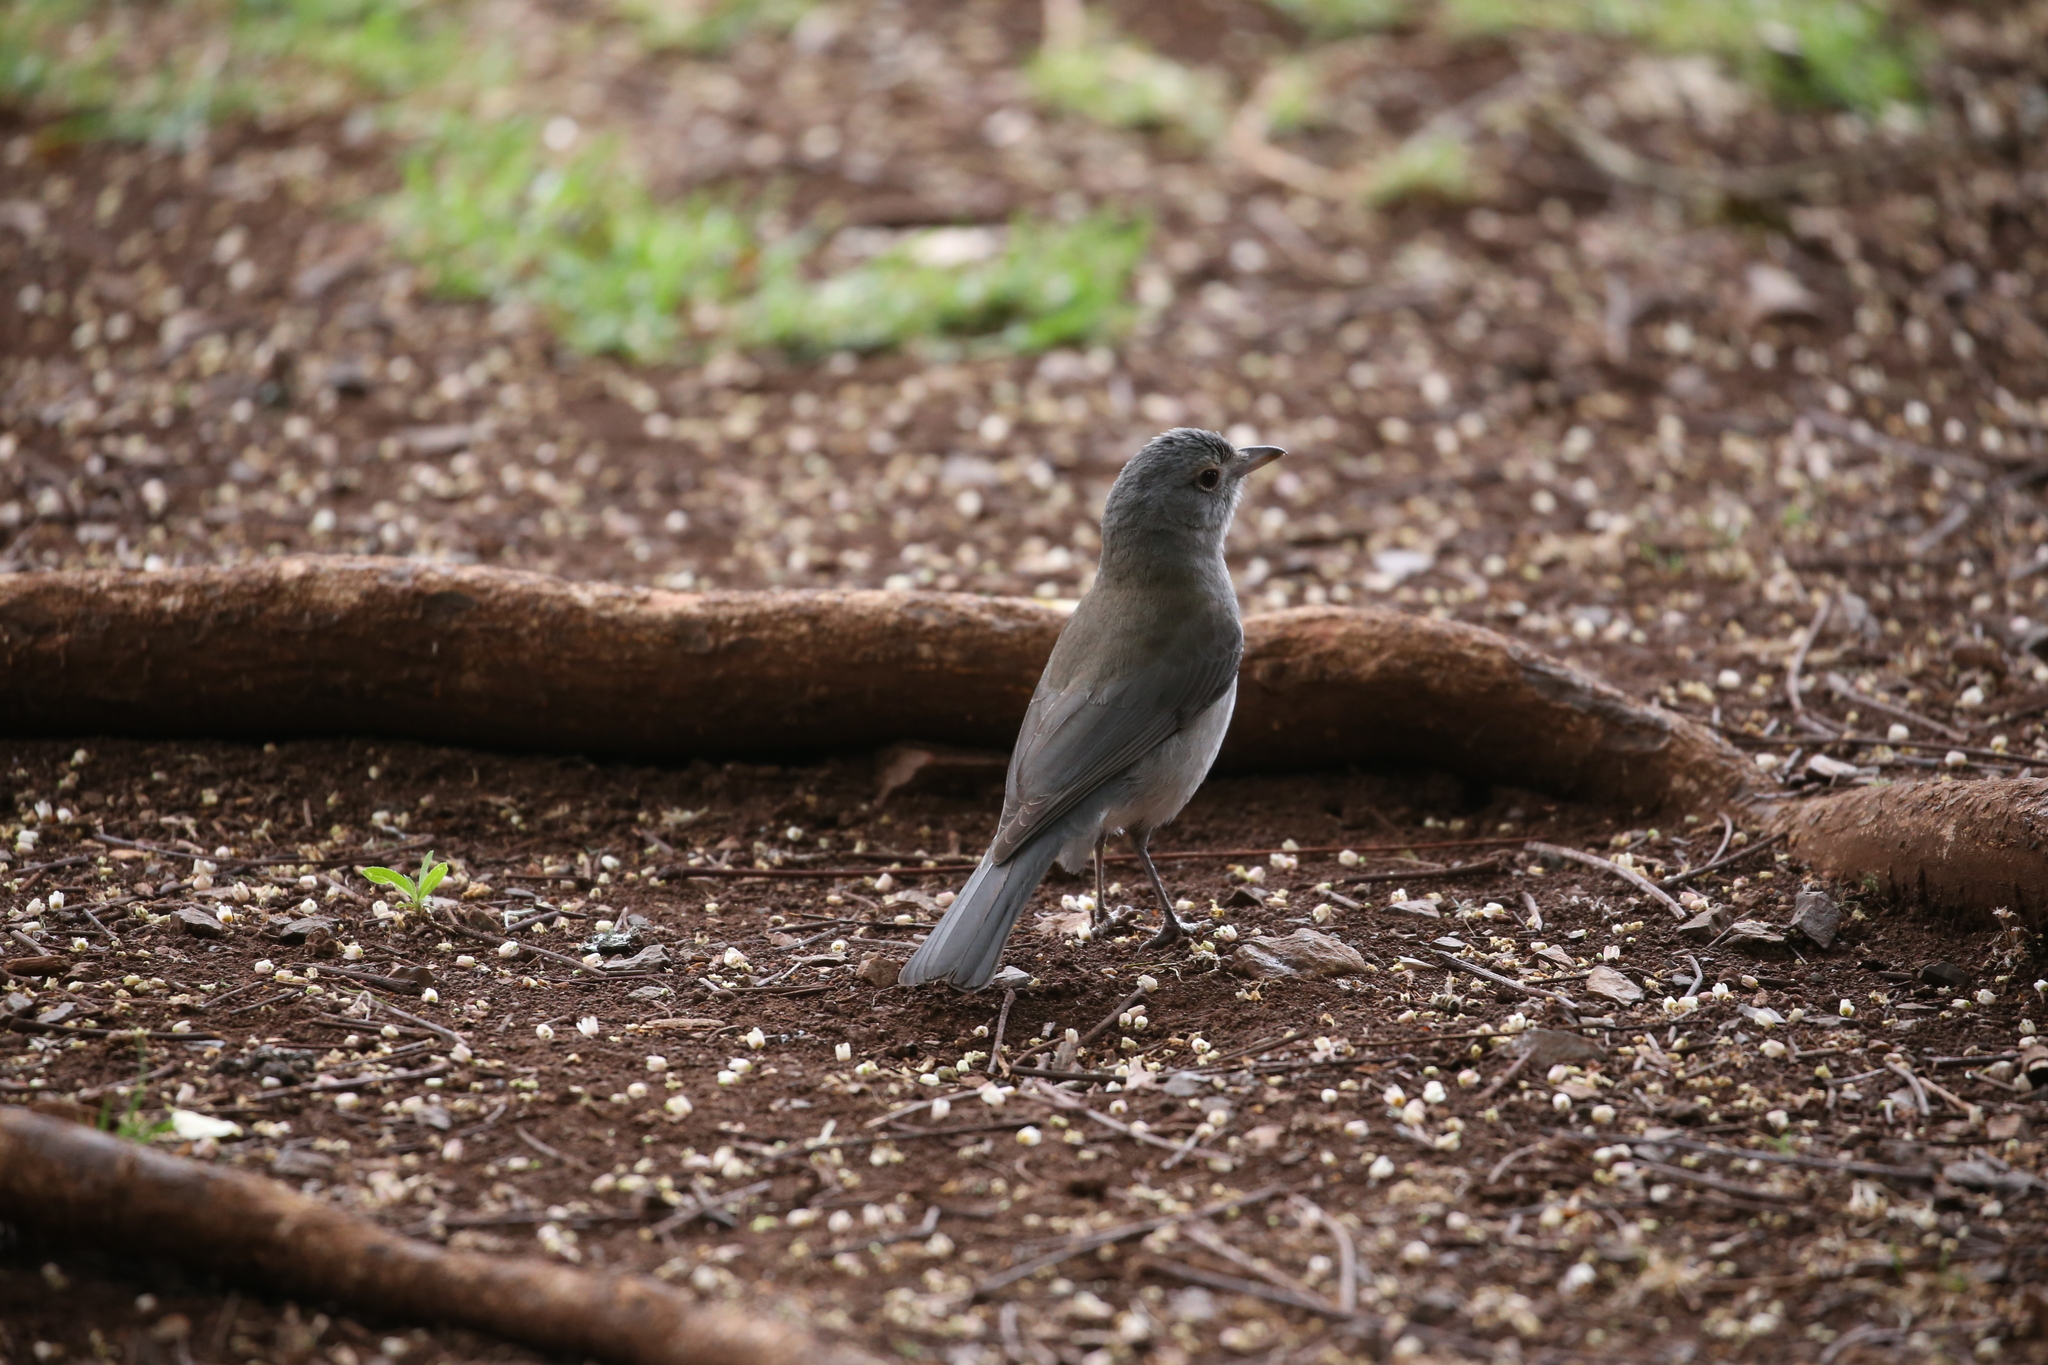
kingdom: Animalia
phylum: Chordata
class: Aves
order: Passeriformes
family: Pachycephalidae
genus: Colluricincla
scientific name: Colluricincla harmonica
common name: Grey shrikethrush
